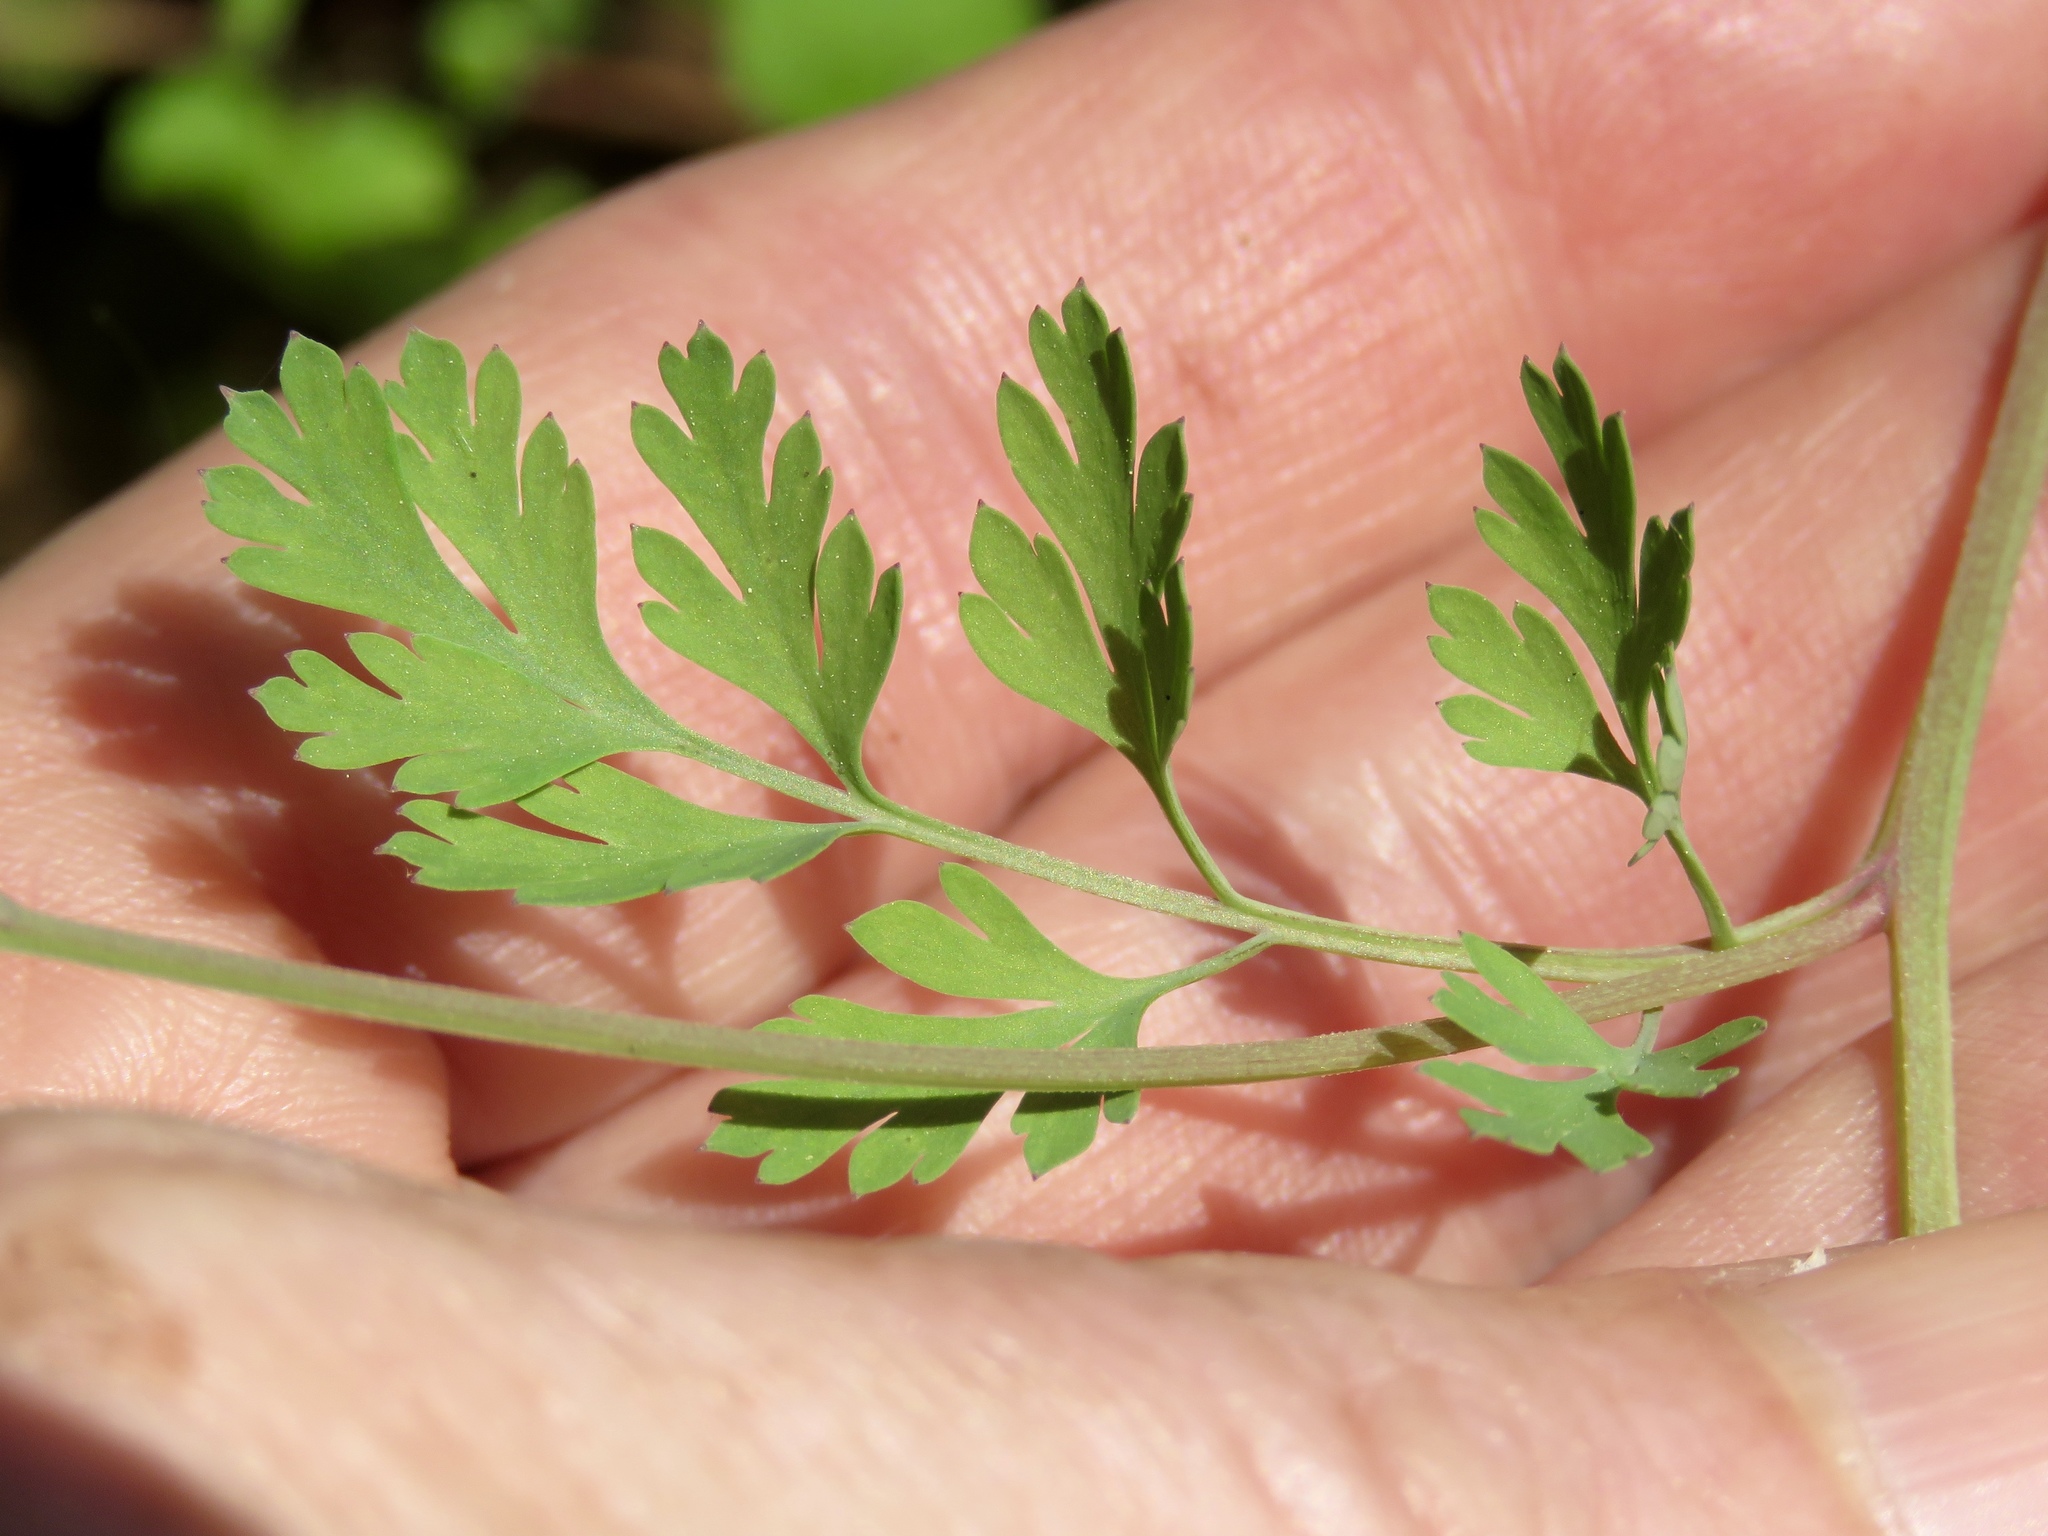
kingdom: Plantae
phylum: Tracheophyta
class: Magnoliopsida
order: Ranunculales
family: Papaveraceae
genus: Corydalis
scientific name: Corydalis micrantha
